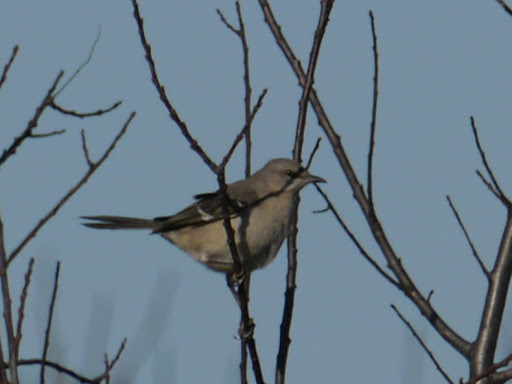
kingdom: Animalia
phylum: Chordata
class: Aves
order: Passeriformes
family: Mimidae
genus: Mimus
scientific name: Mimus polyglottos
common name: Northern mockingbird
